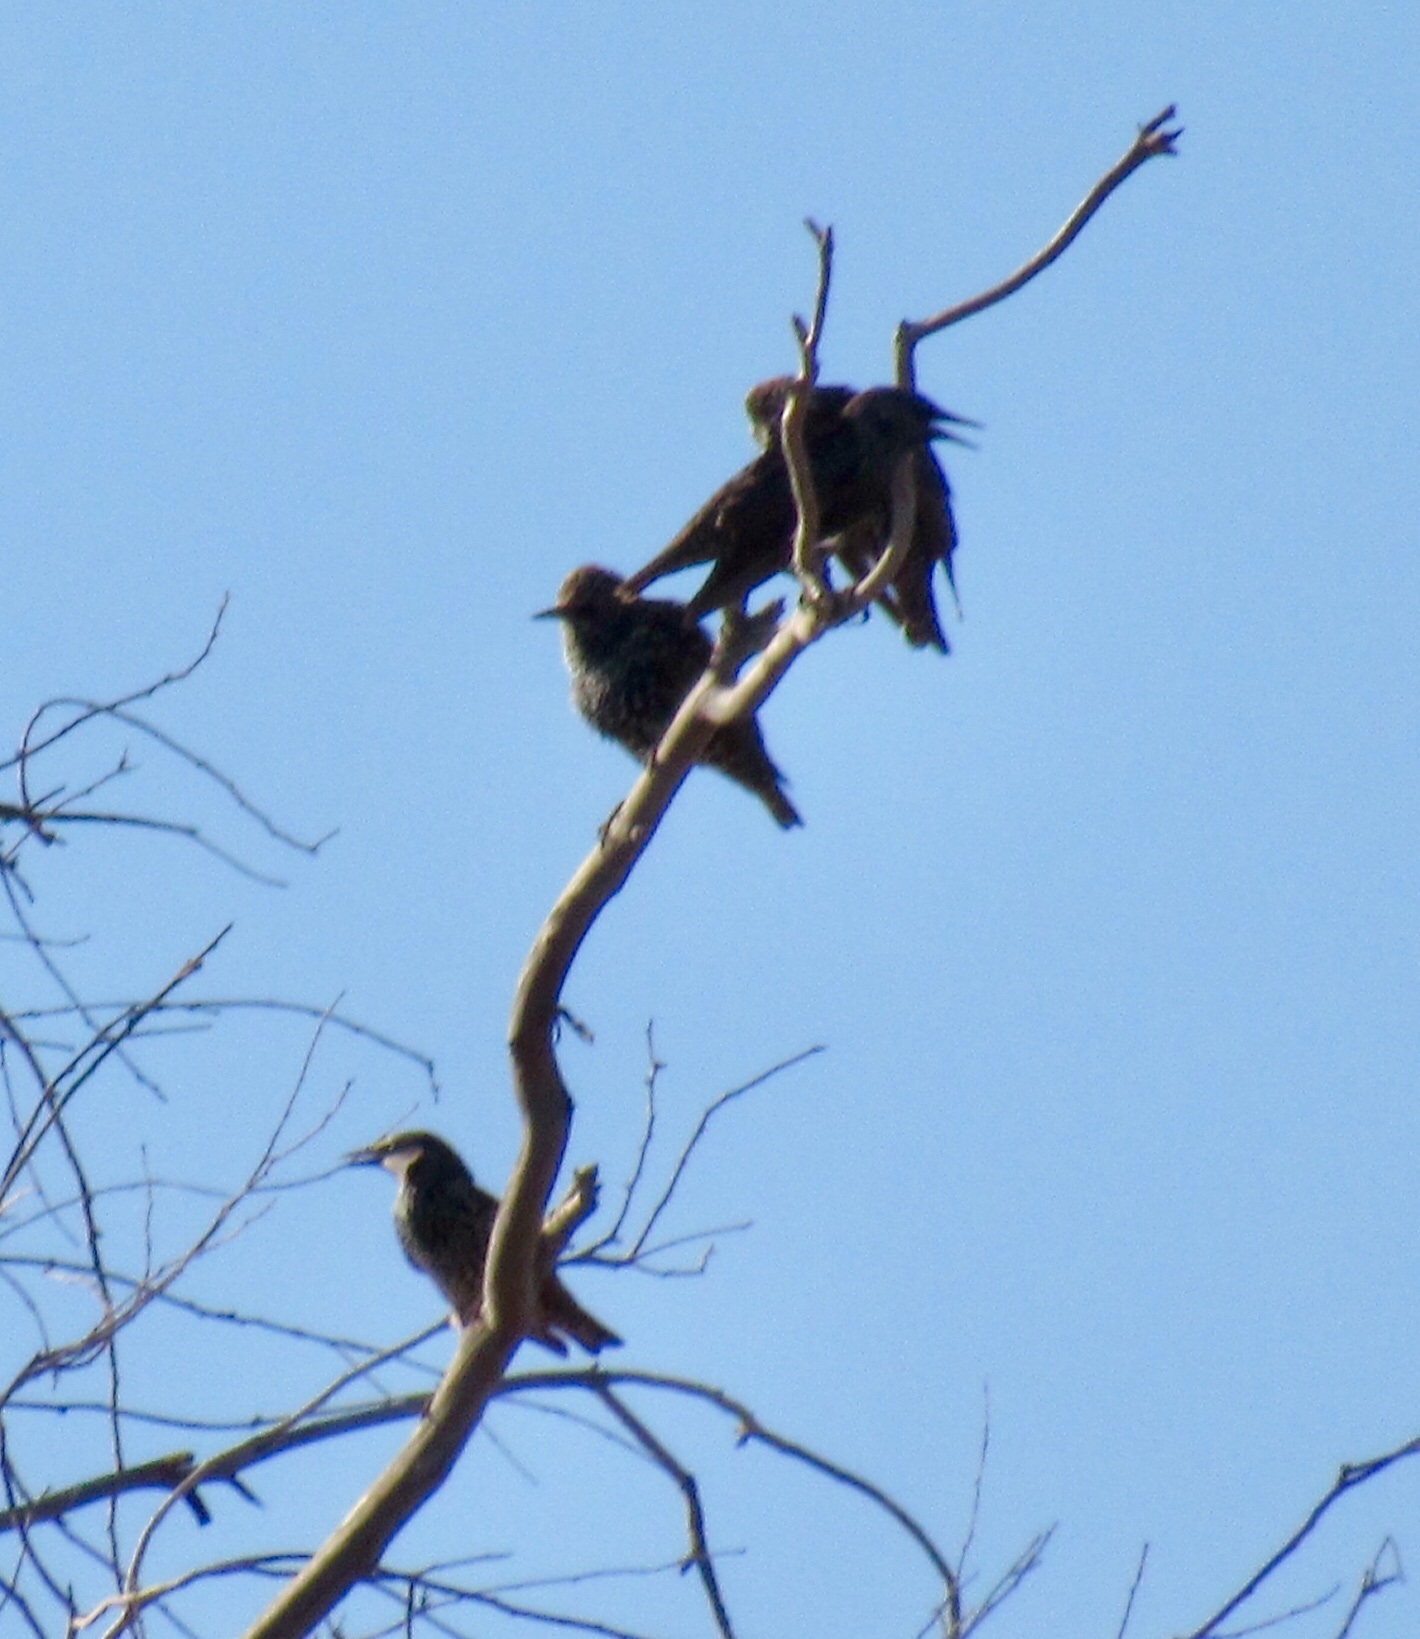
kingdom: Animalia
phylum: Chordata
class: Aves
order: Passeriformes
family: Sturnidae
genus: Sturnus
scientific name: Sturnus vulgaris
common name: Common starling
